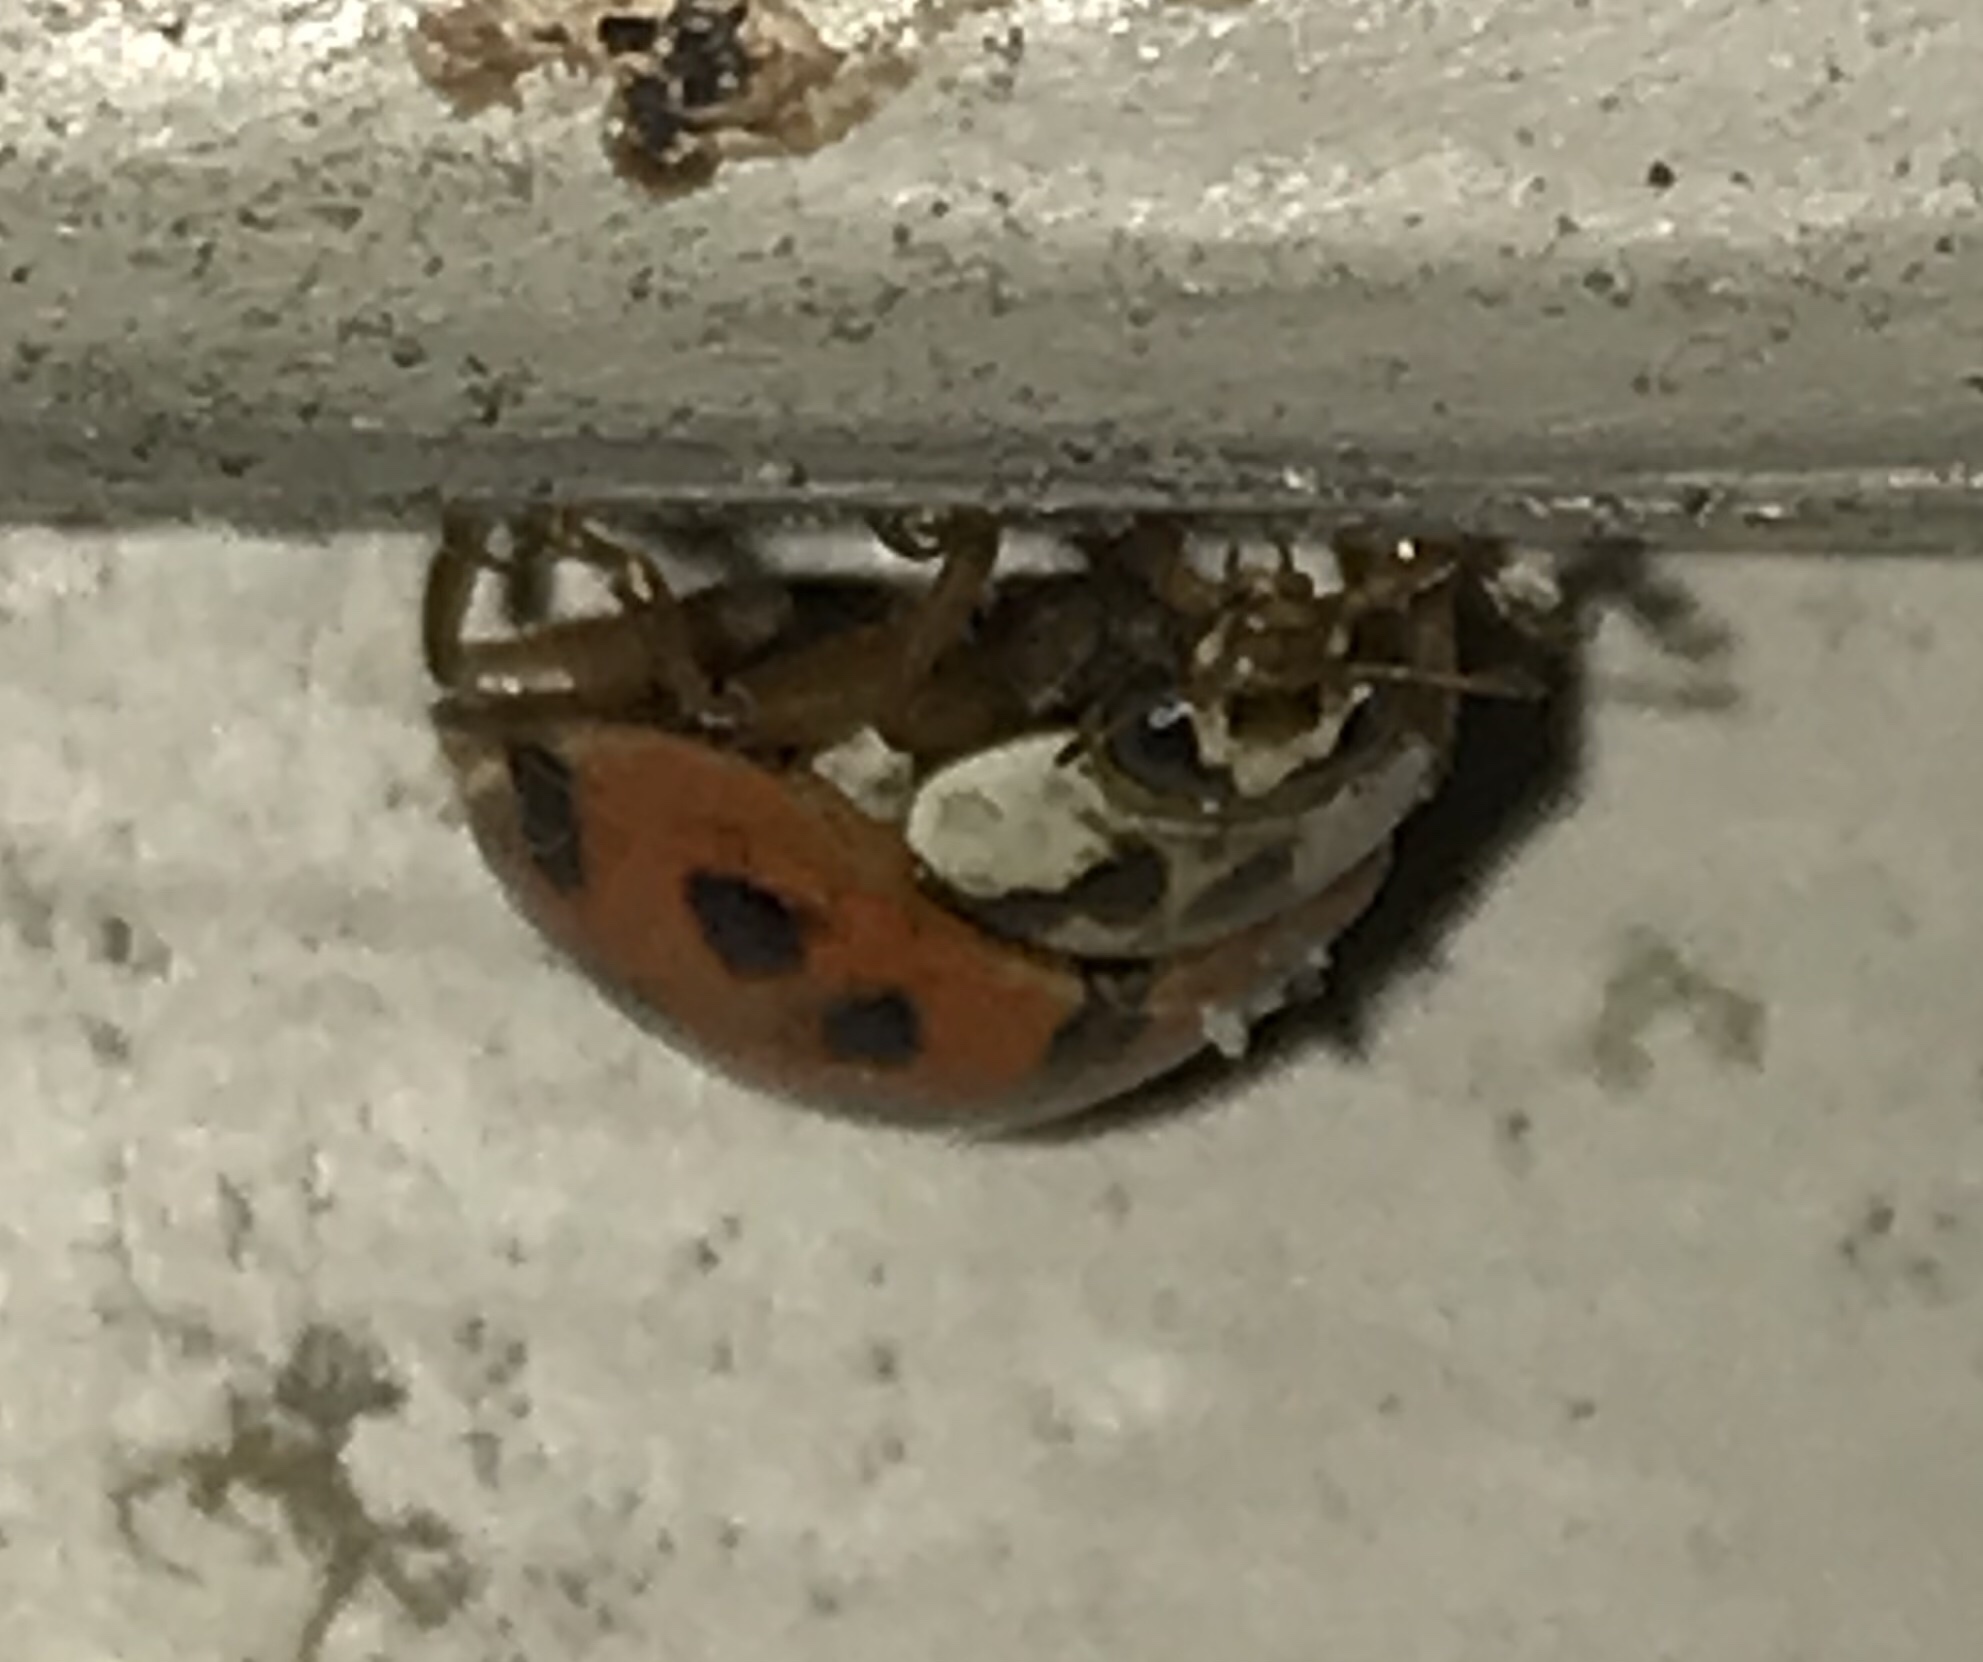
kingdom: Animalia
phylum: Arthropoda
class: Insecta
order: Coleoptera
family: Coccinellidae
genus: Harmonia
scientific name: Harmonia axyridis
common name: Harlequin ladybird
